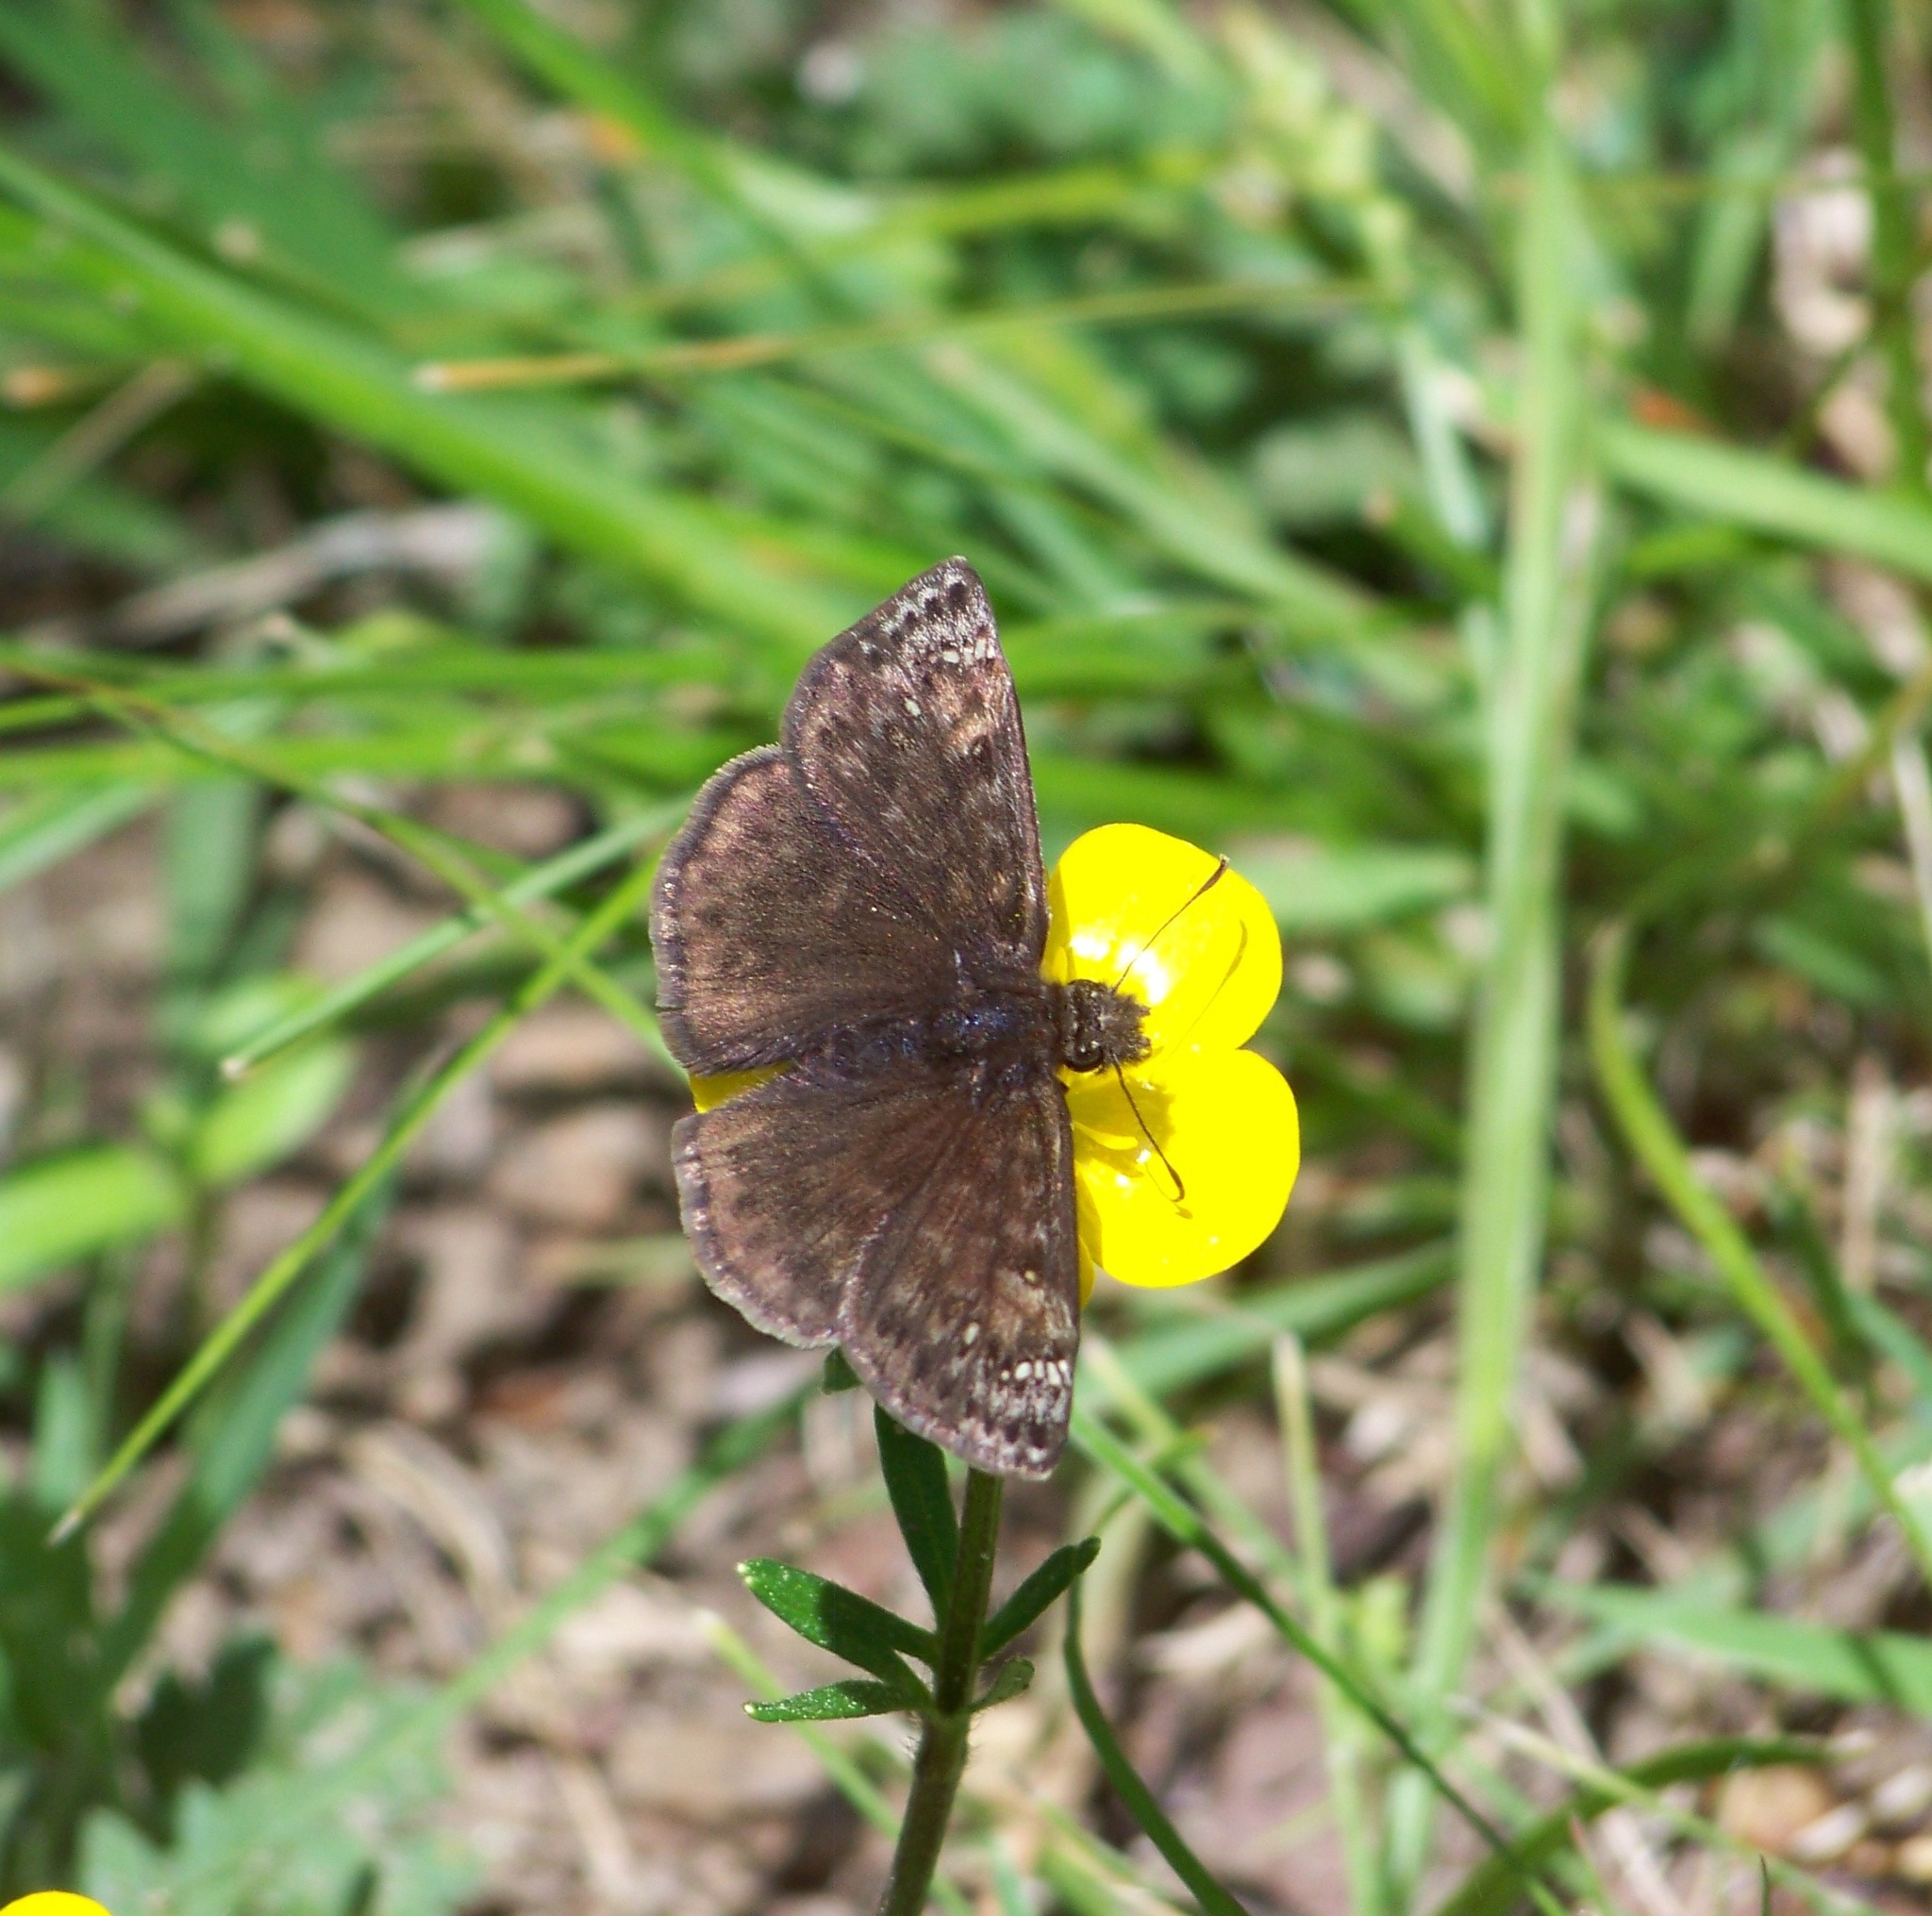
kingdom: Animalia
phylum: Arthropoda
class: Insecta
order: Lepidoptera
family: Hesperiidae
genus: Erynnis
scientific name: Erynnis
